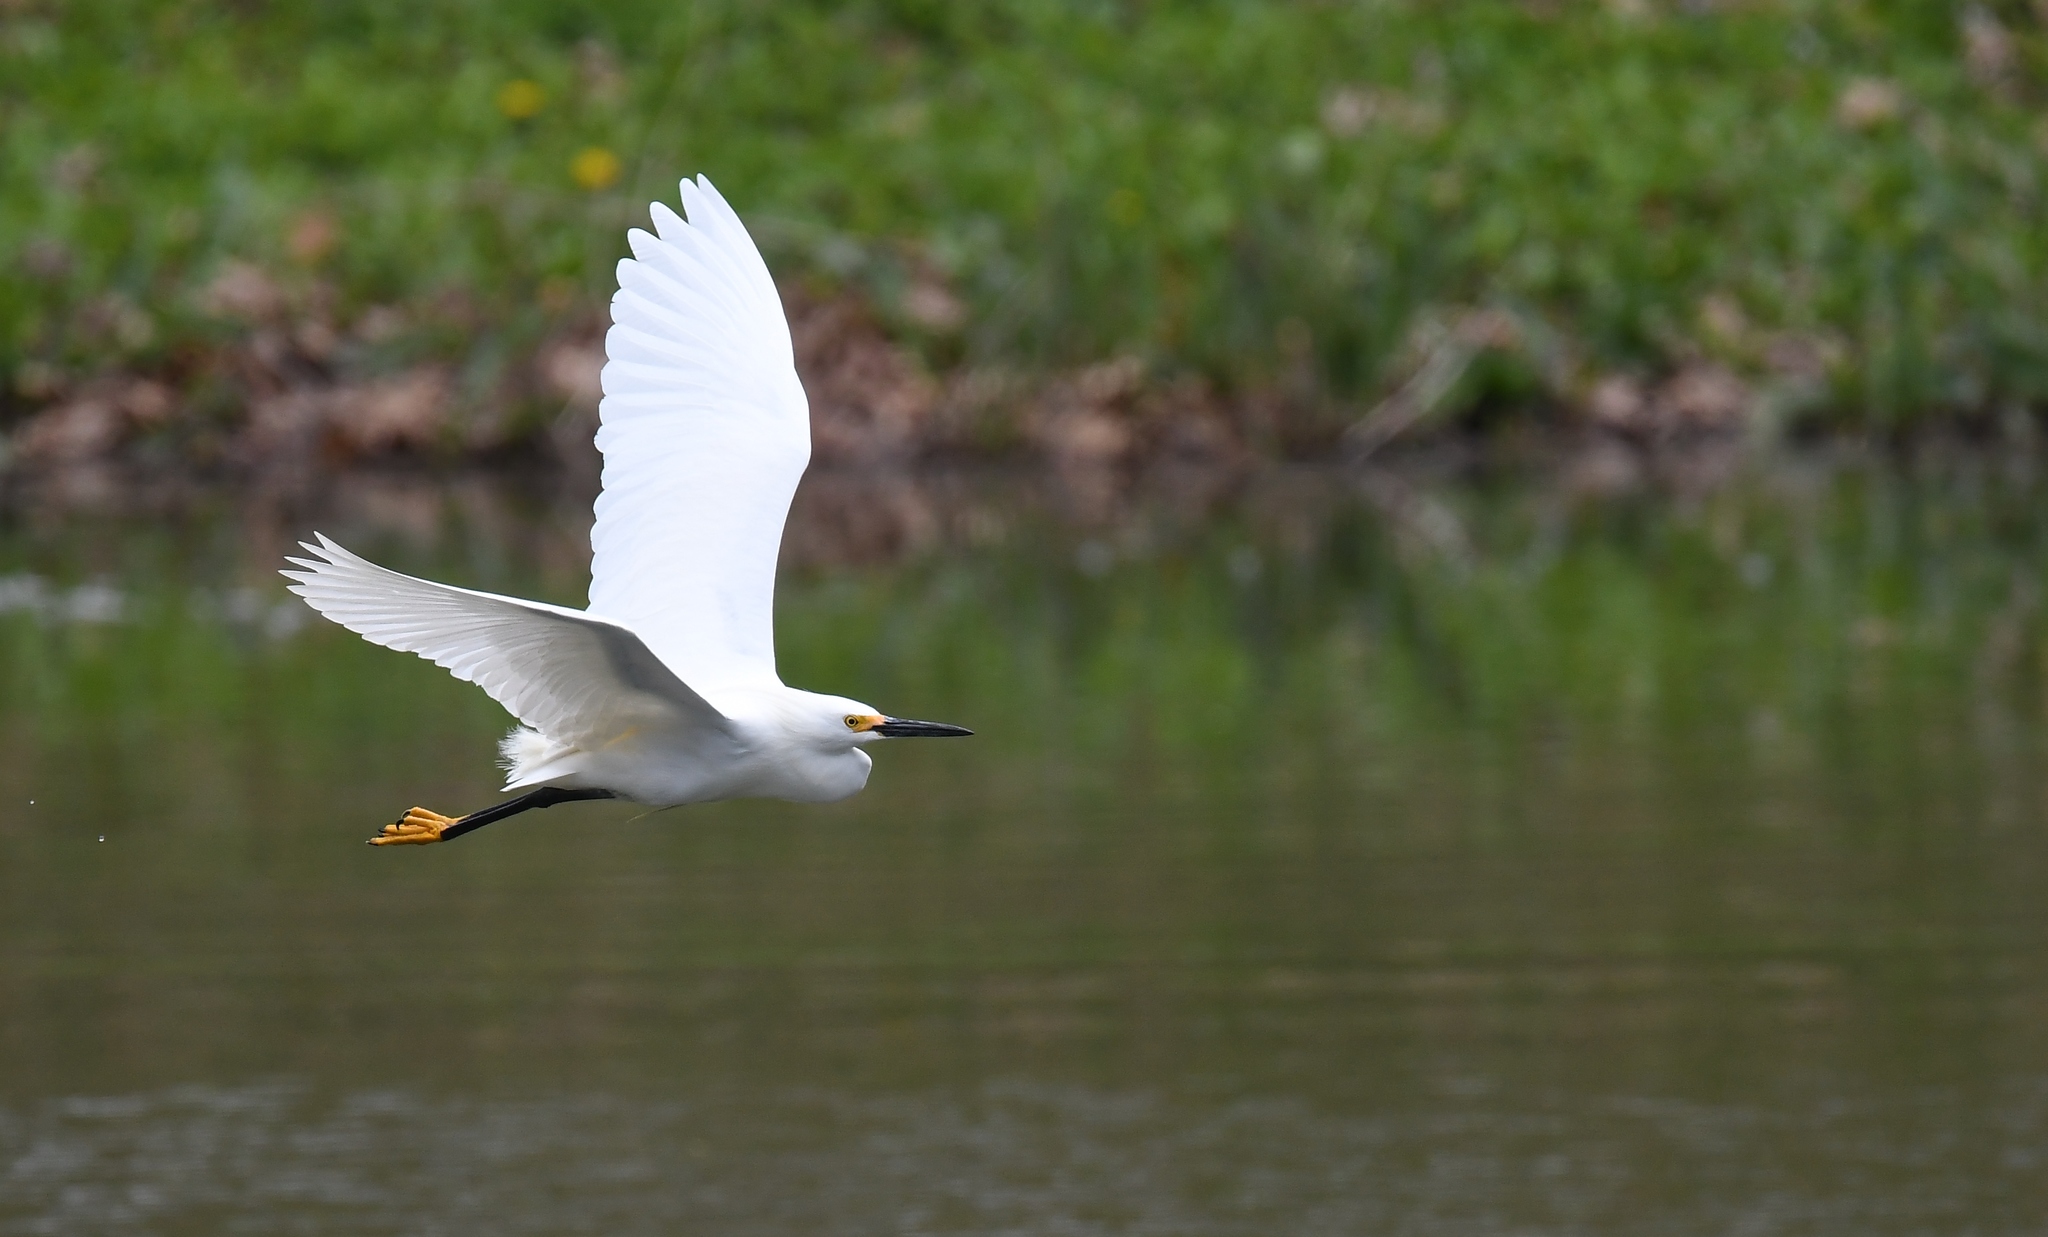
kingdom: Animalia
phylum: Chordata
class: Aves
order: Pelecaniformes
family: Ardeidae
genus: Egretta
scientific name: Egretta thula
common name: Snowy egret
